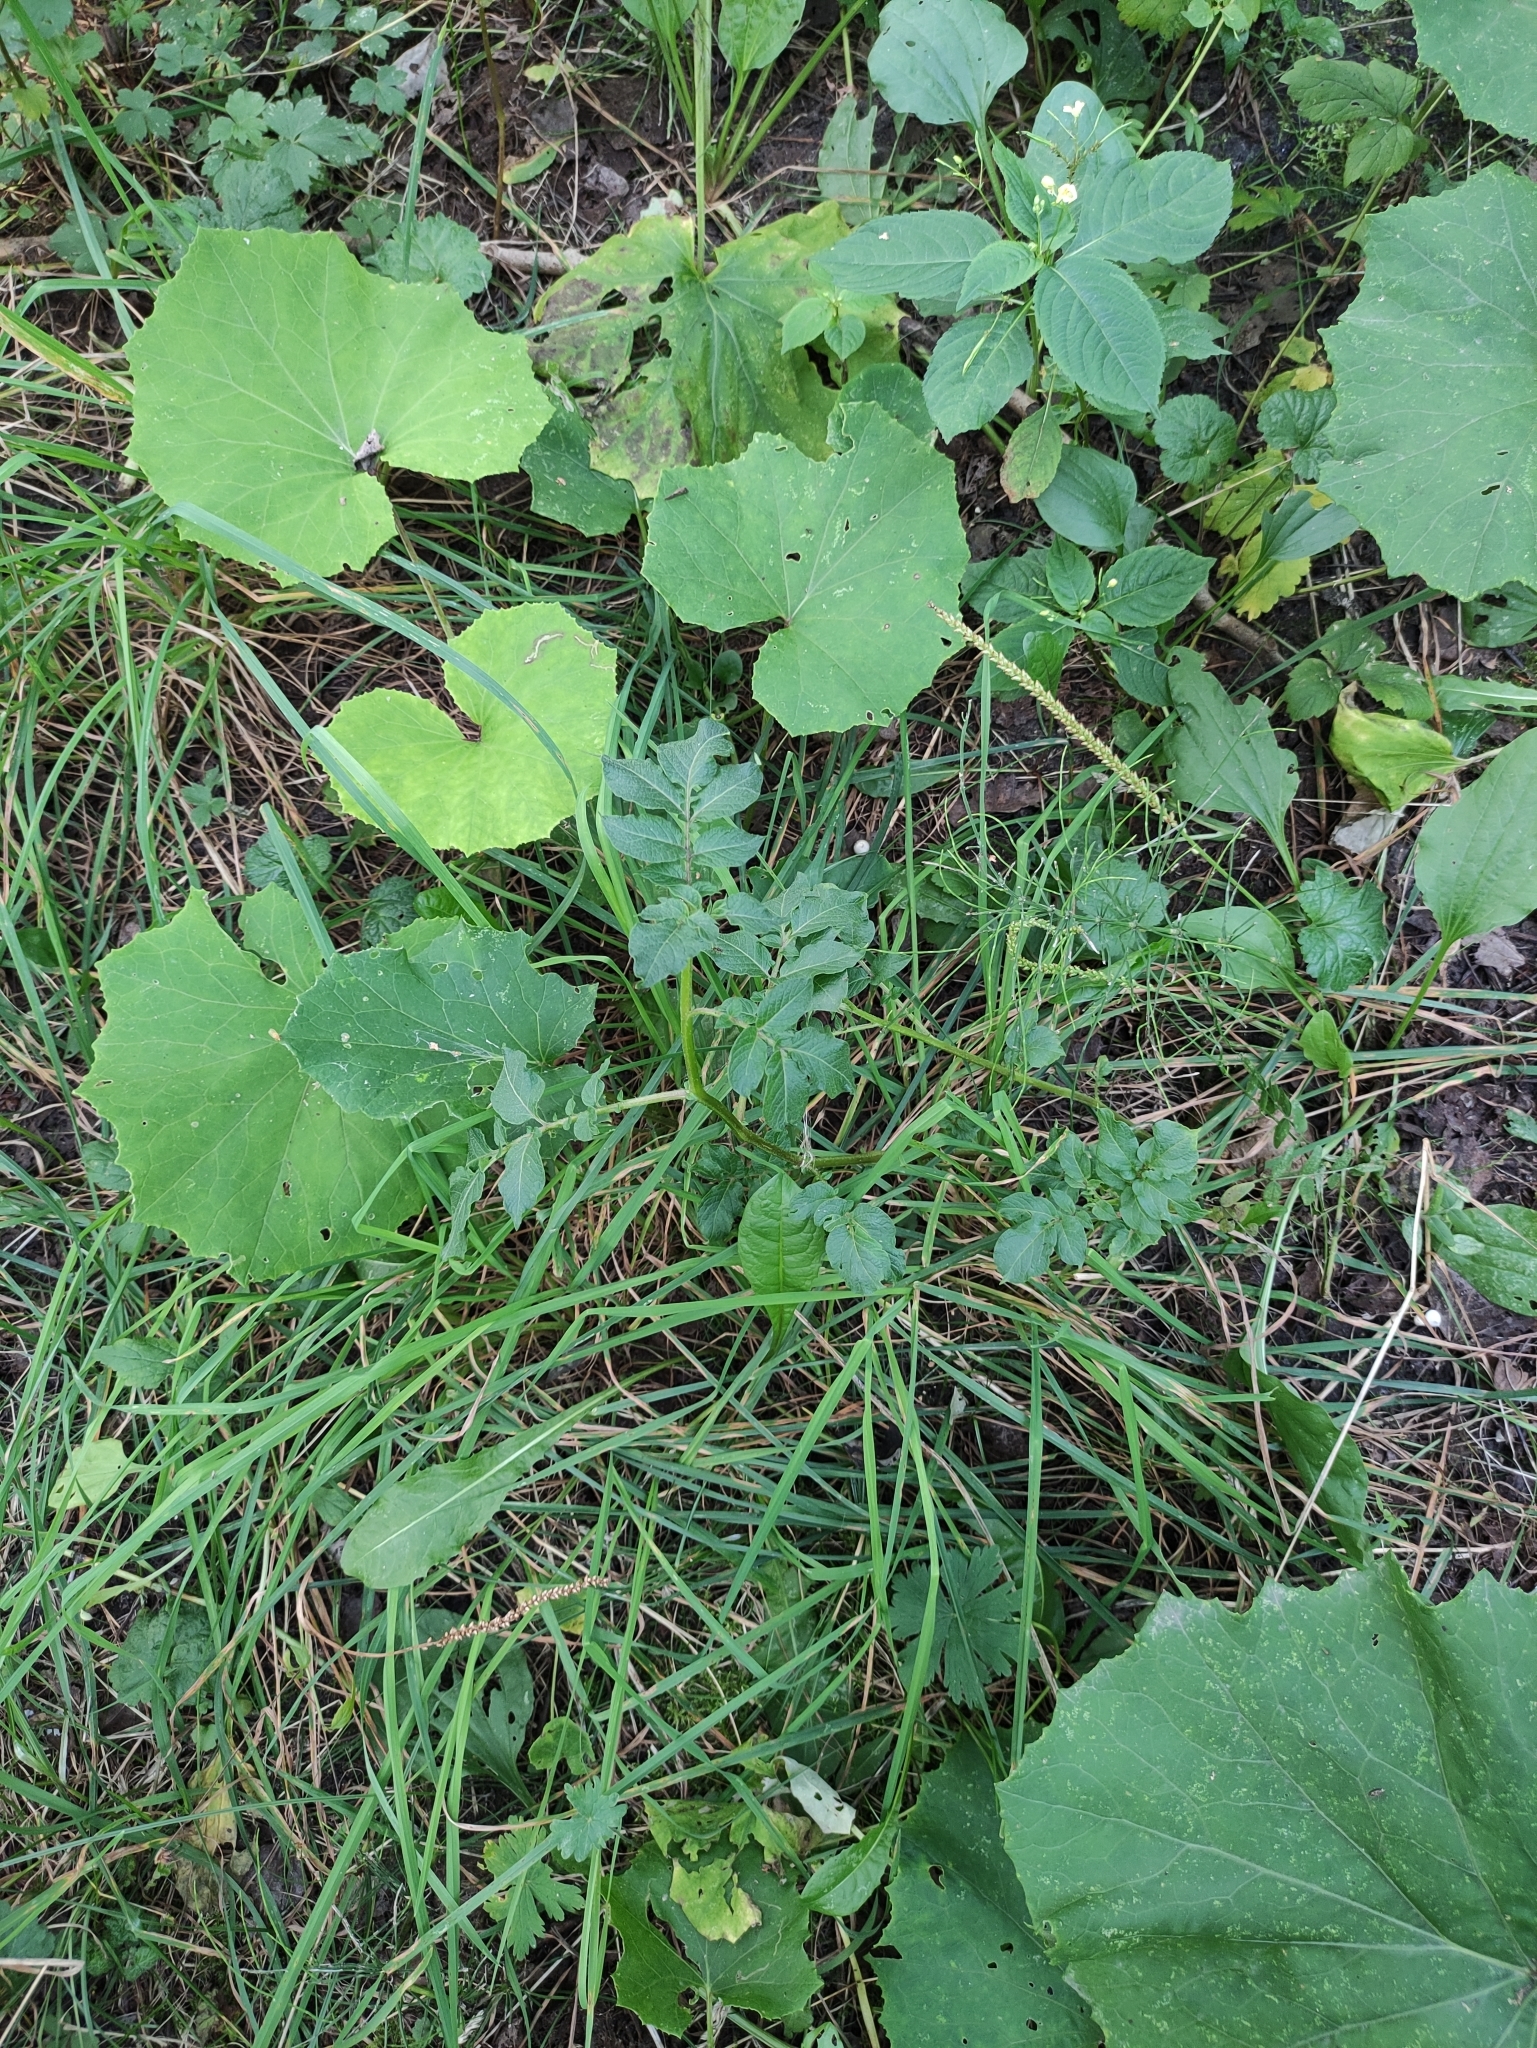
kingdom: Plantae
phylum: Tracheophyta
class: Magnoliopsida
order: Solanales
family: Solanaceae
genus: Solanum
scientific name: Solanum tuberosum
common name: Potato
